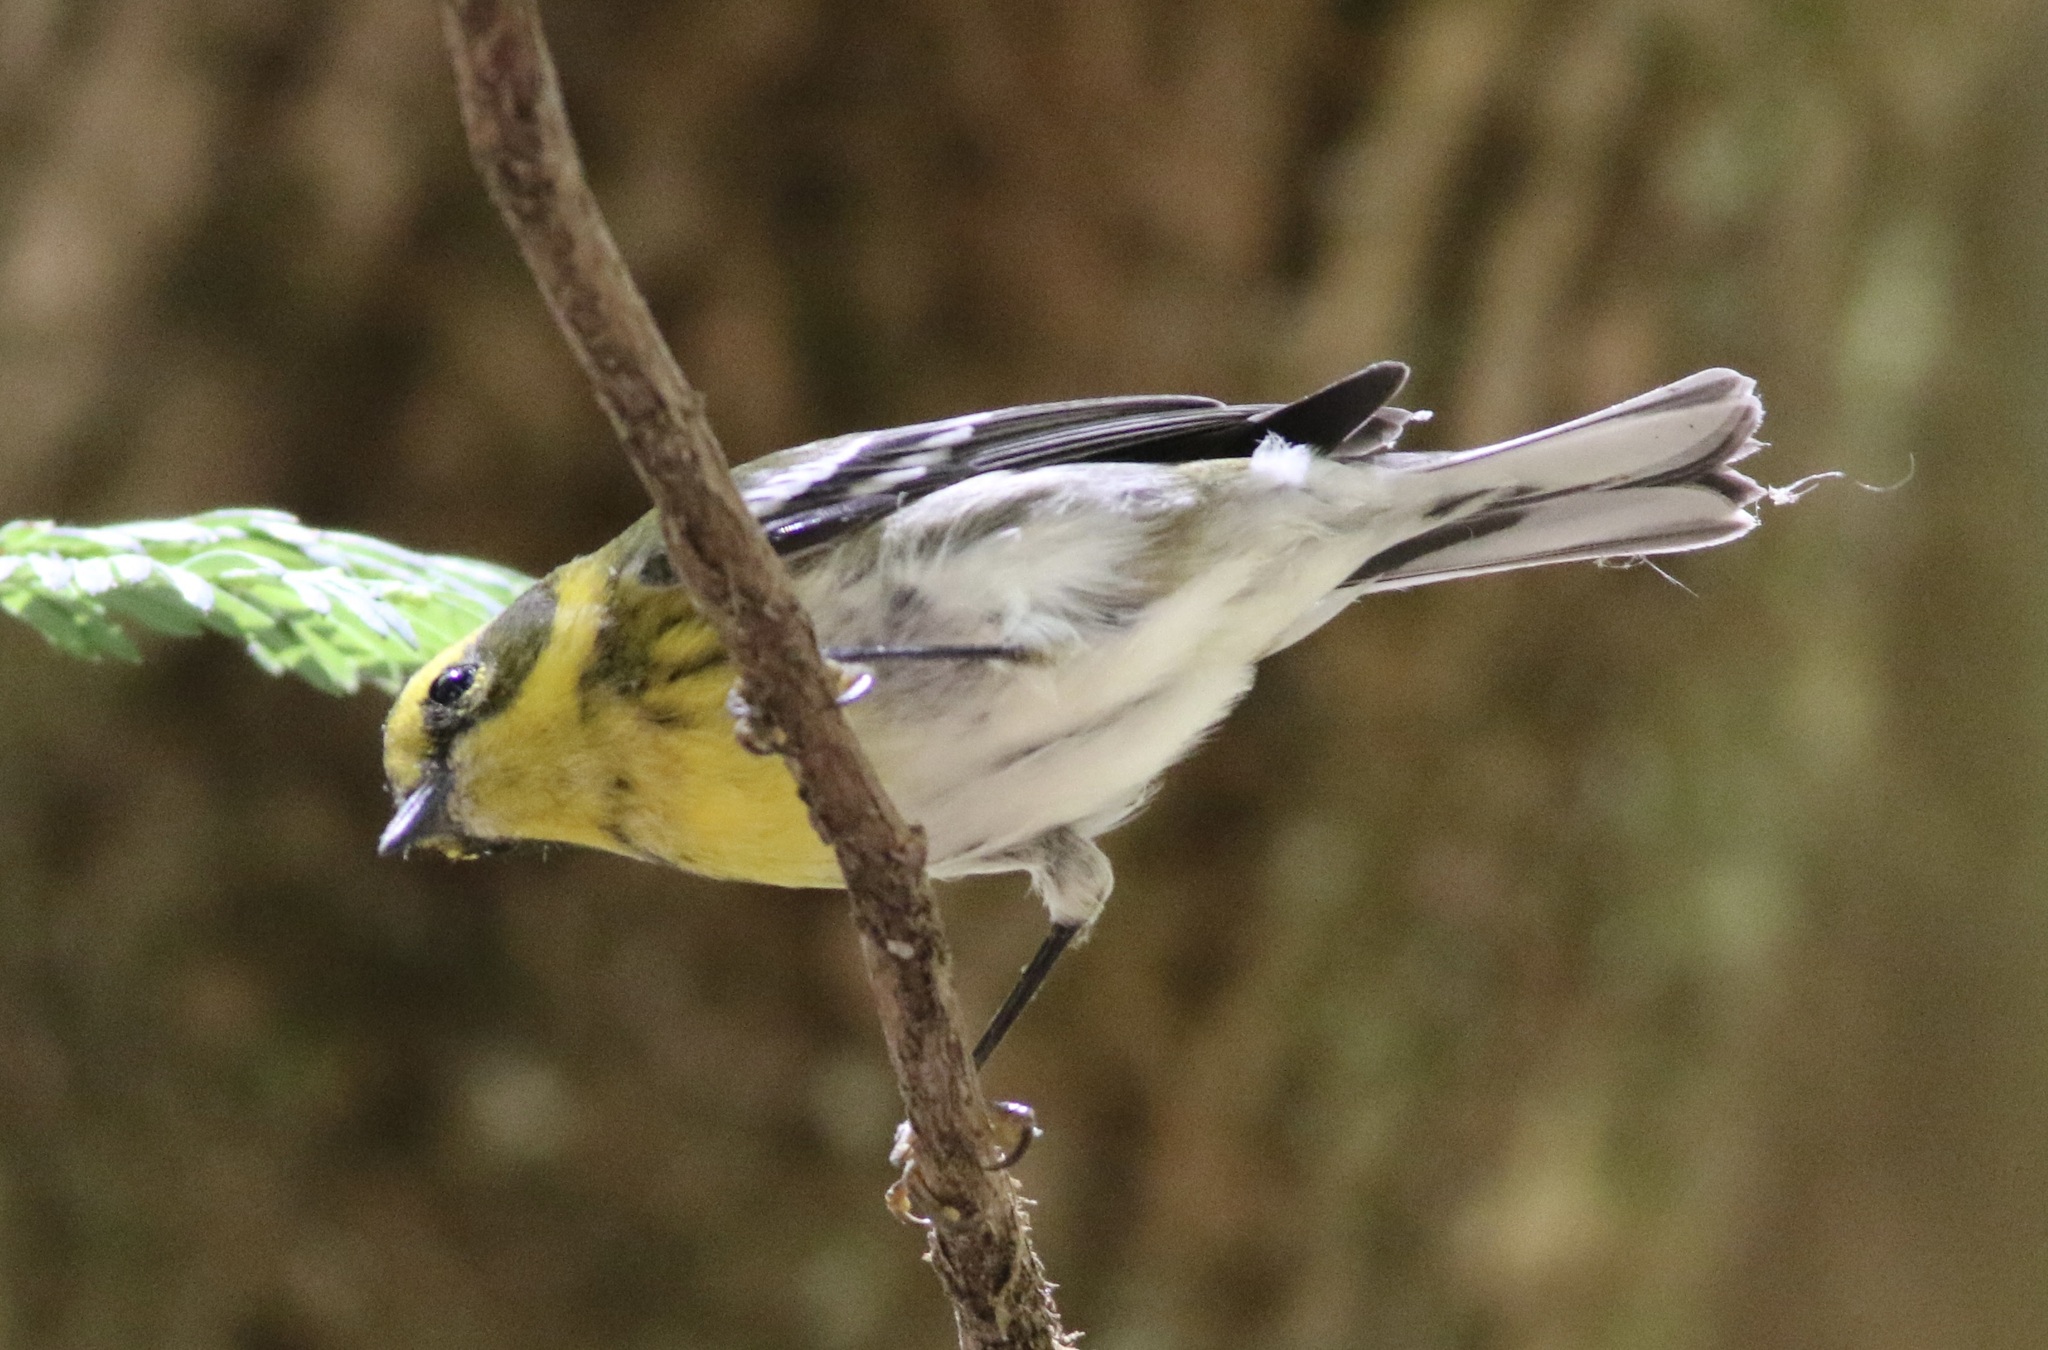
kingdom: Animalia
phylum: Chordata
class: Aves
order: Passeriformes
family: Parulidae
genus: Setophaga
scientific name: Setophaga townsendi
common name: Townsend's warbler
